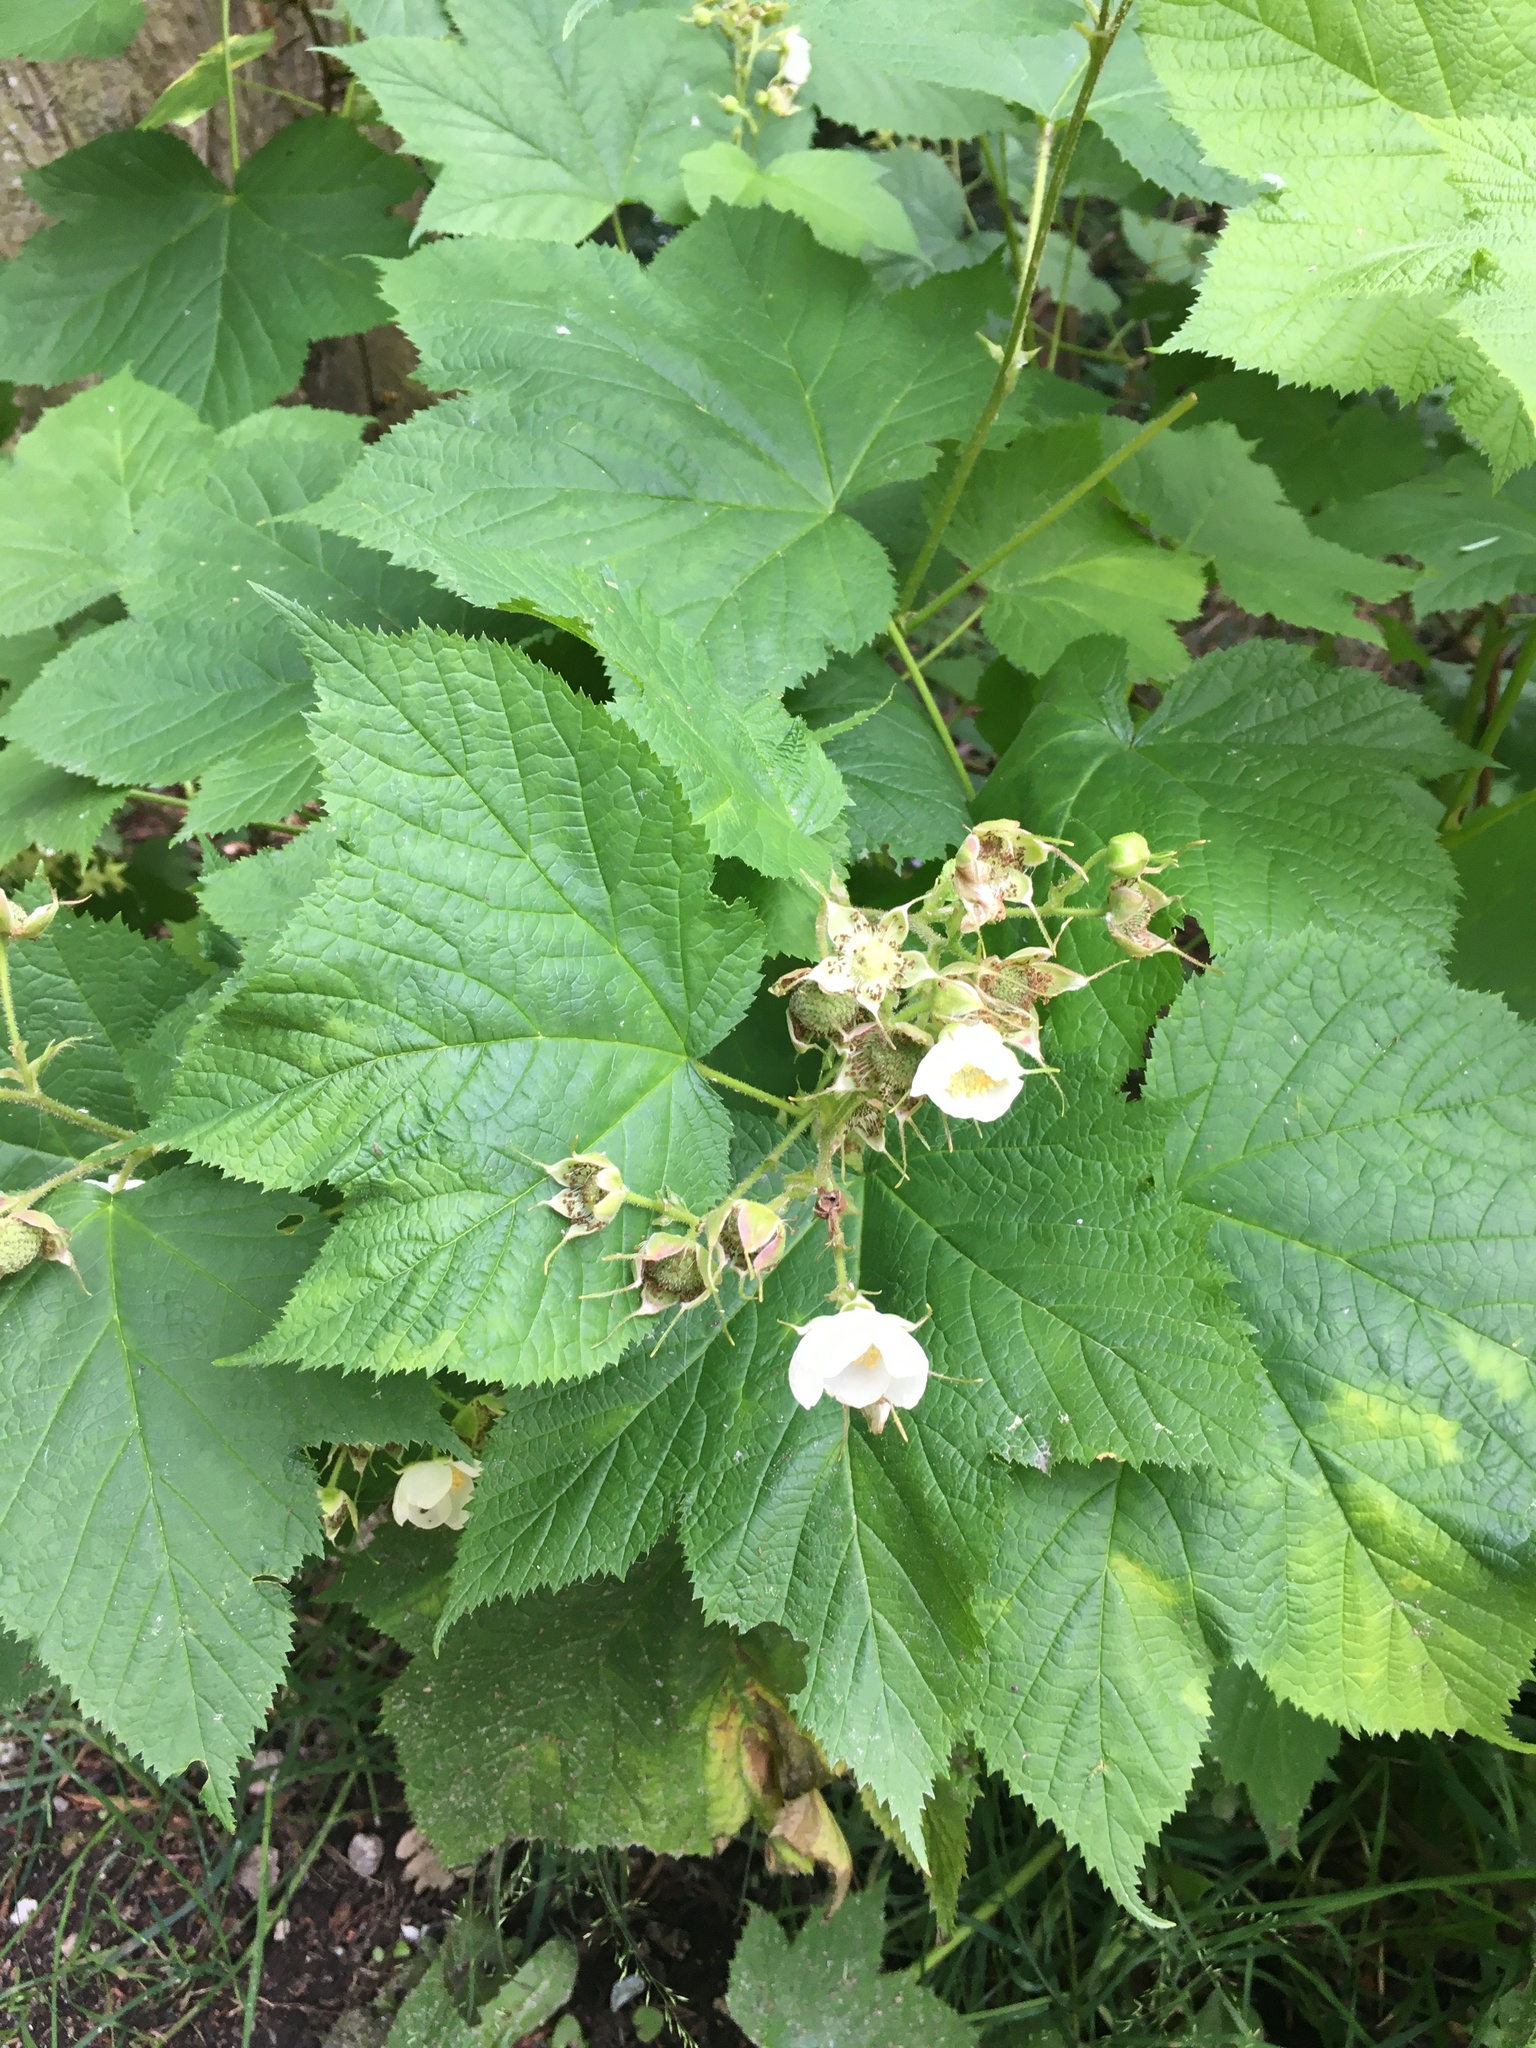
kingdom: Plantae
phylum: Tracheophyta
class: Magnoliopsida
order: Rosales
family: Rosaceae
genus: Rubus
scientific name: Rubus parviflorus
